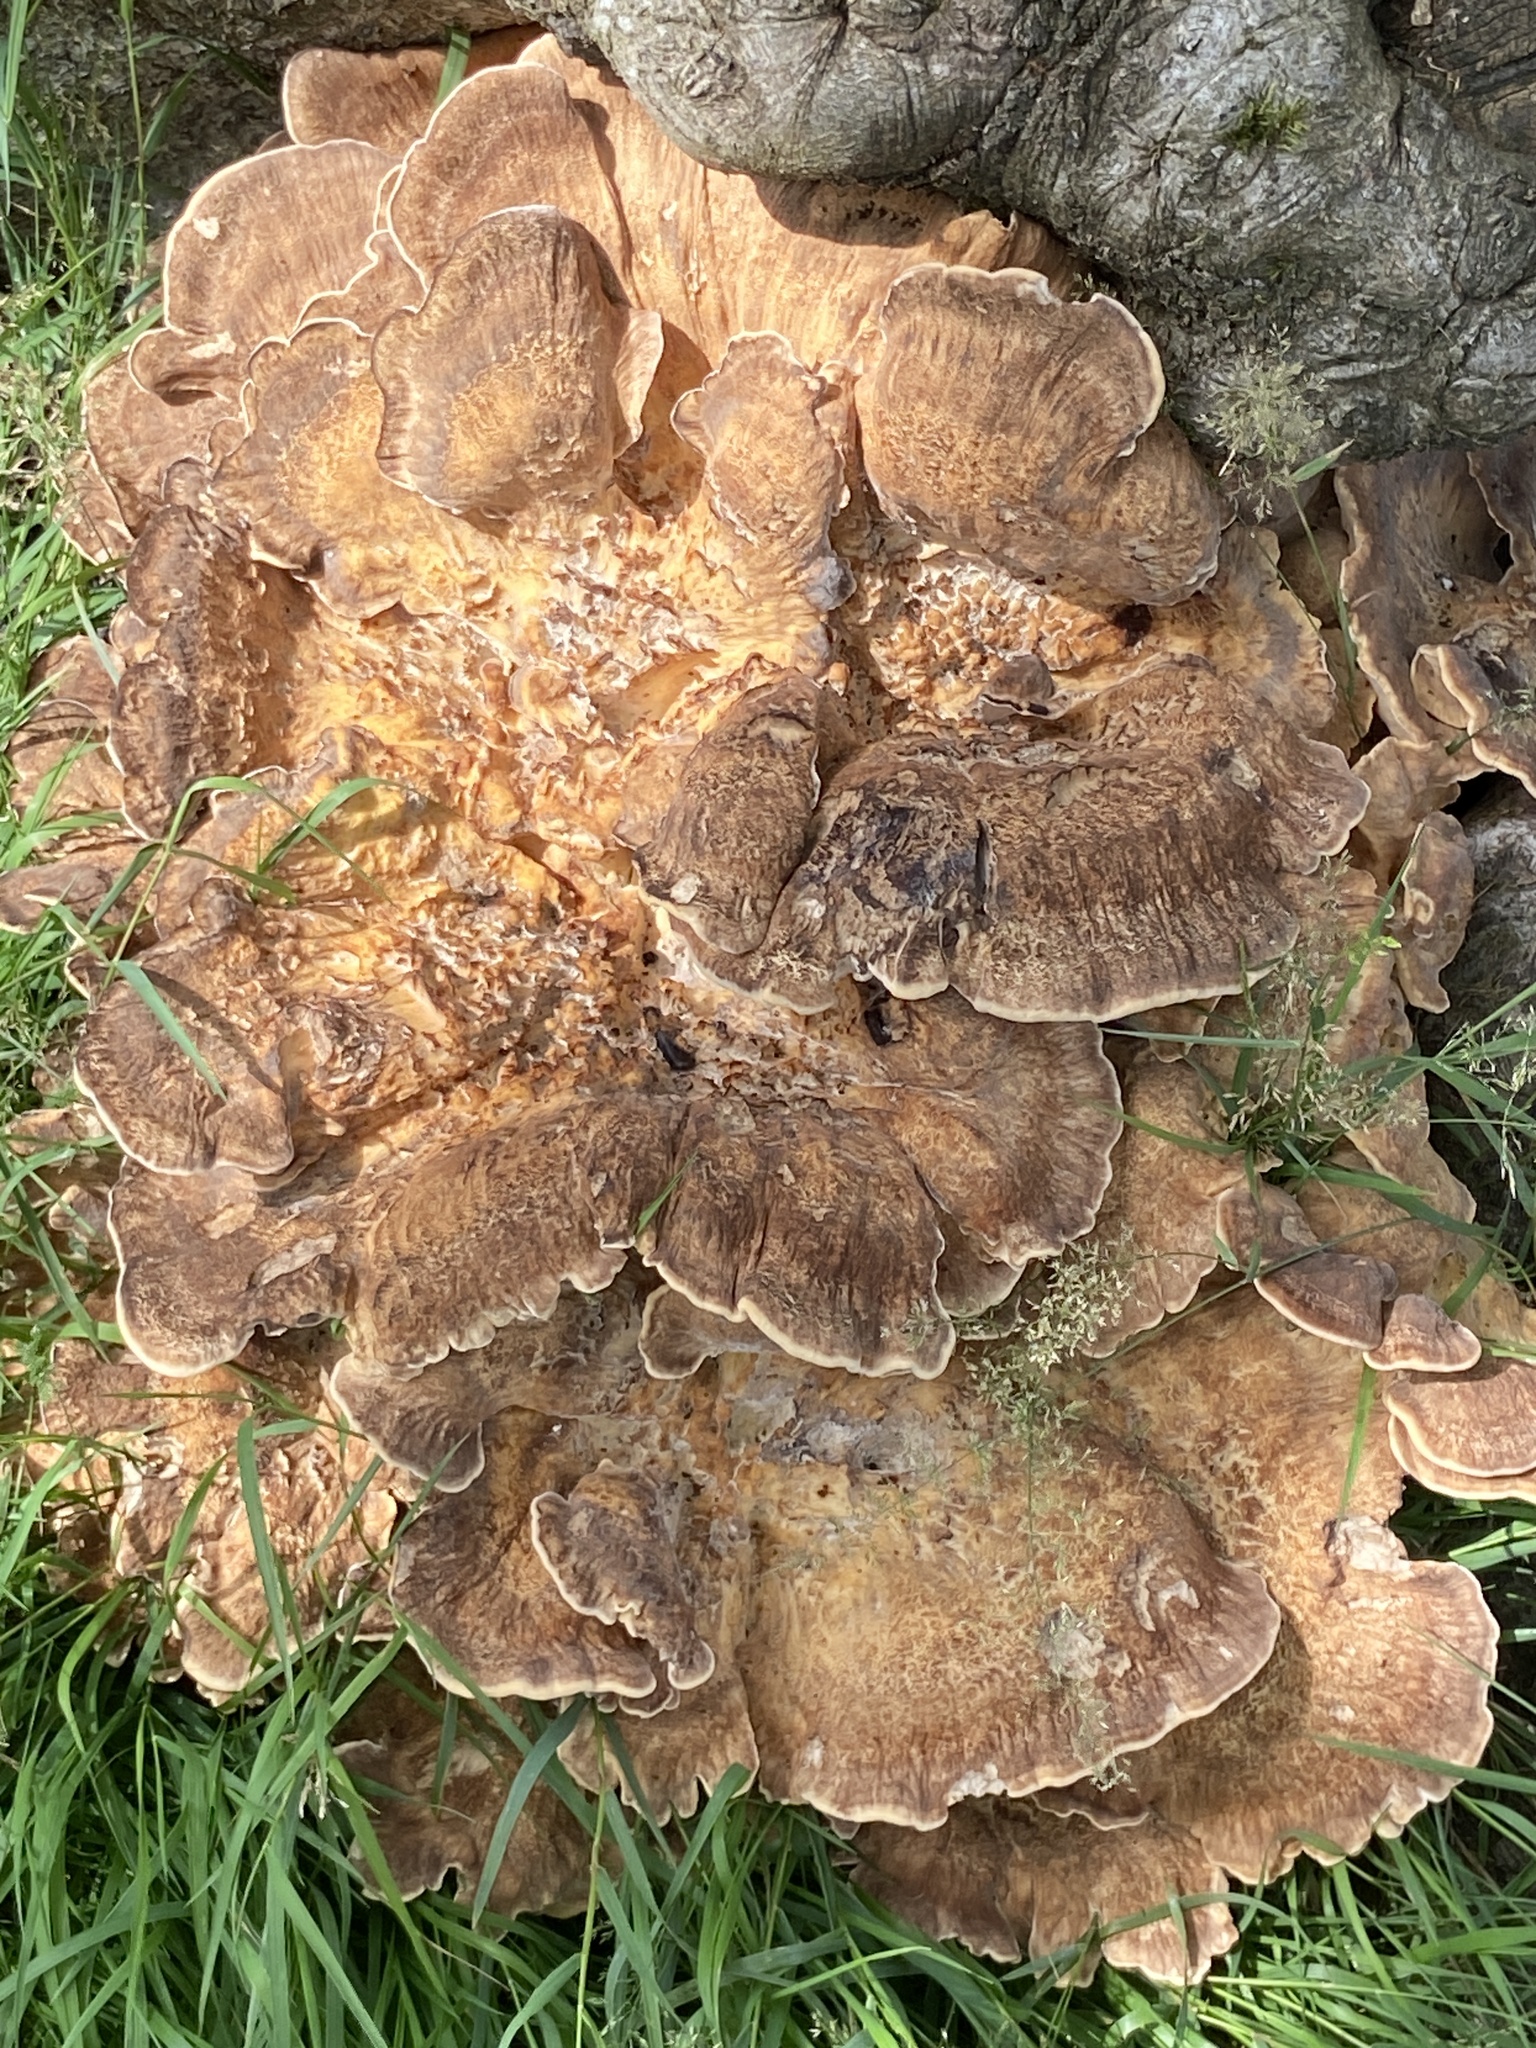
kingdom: Fungi
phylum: Basidiomycota
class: Agaricomycetes
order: Polyporales
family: Meripilaceae
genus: Meripilus
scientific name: Meripilus giganteus
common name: Giant polypore
